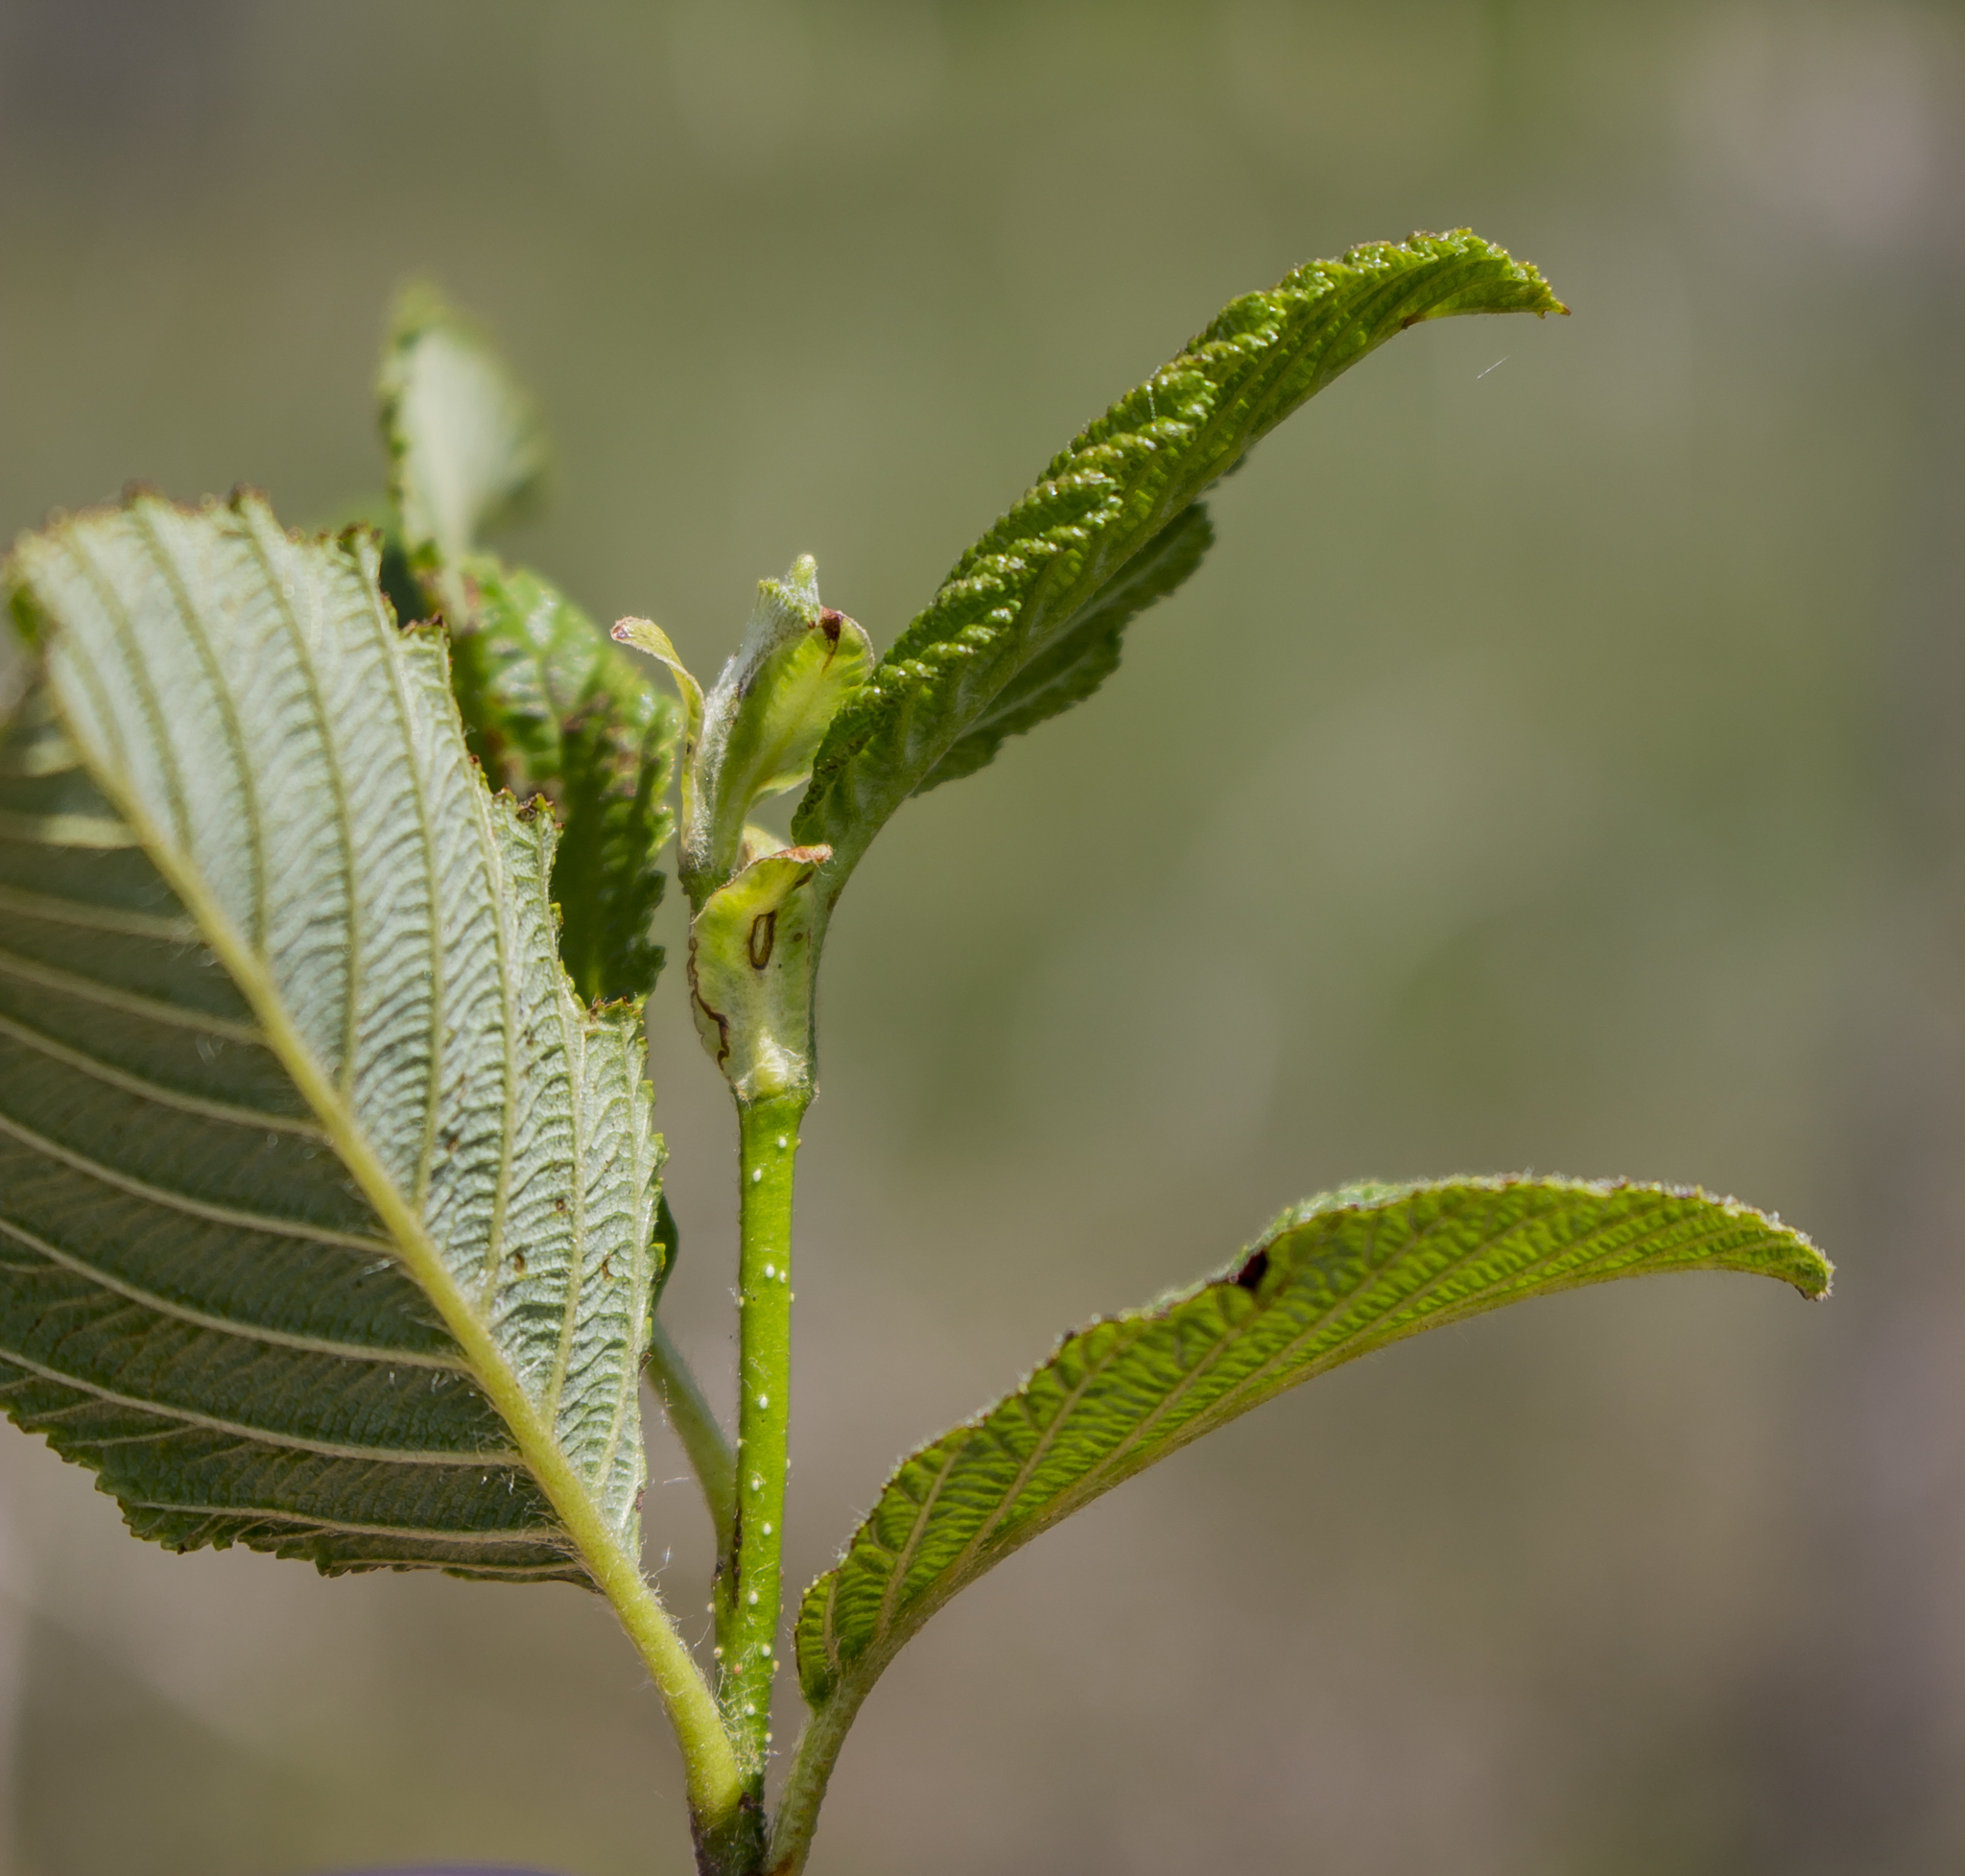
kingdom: Plantae
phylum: Tracheophyta
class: Magnoliopsida
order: Fagales
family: Betulaceae
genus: Alnus
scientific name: Alnus alnobetula
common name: Green alder
